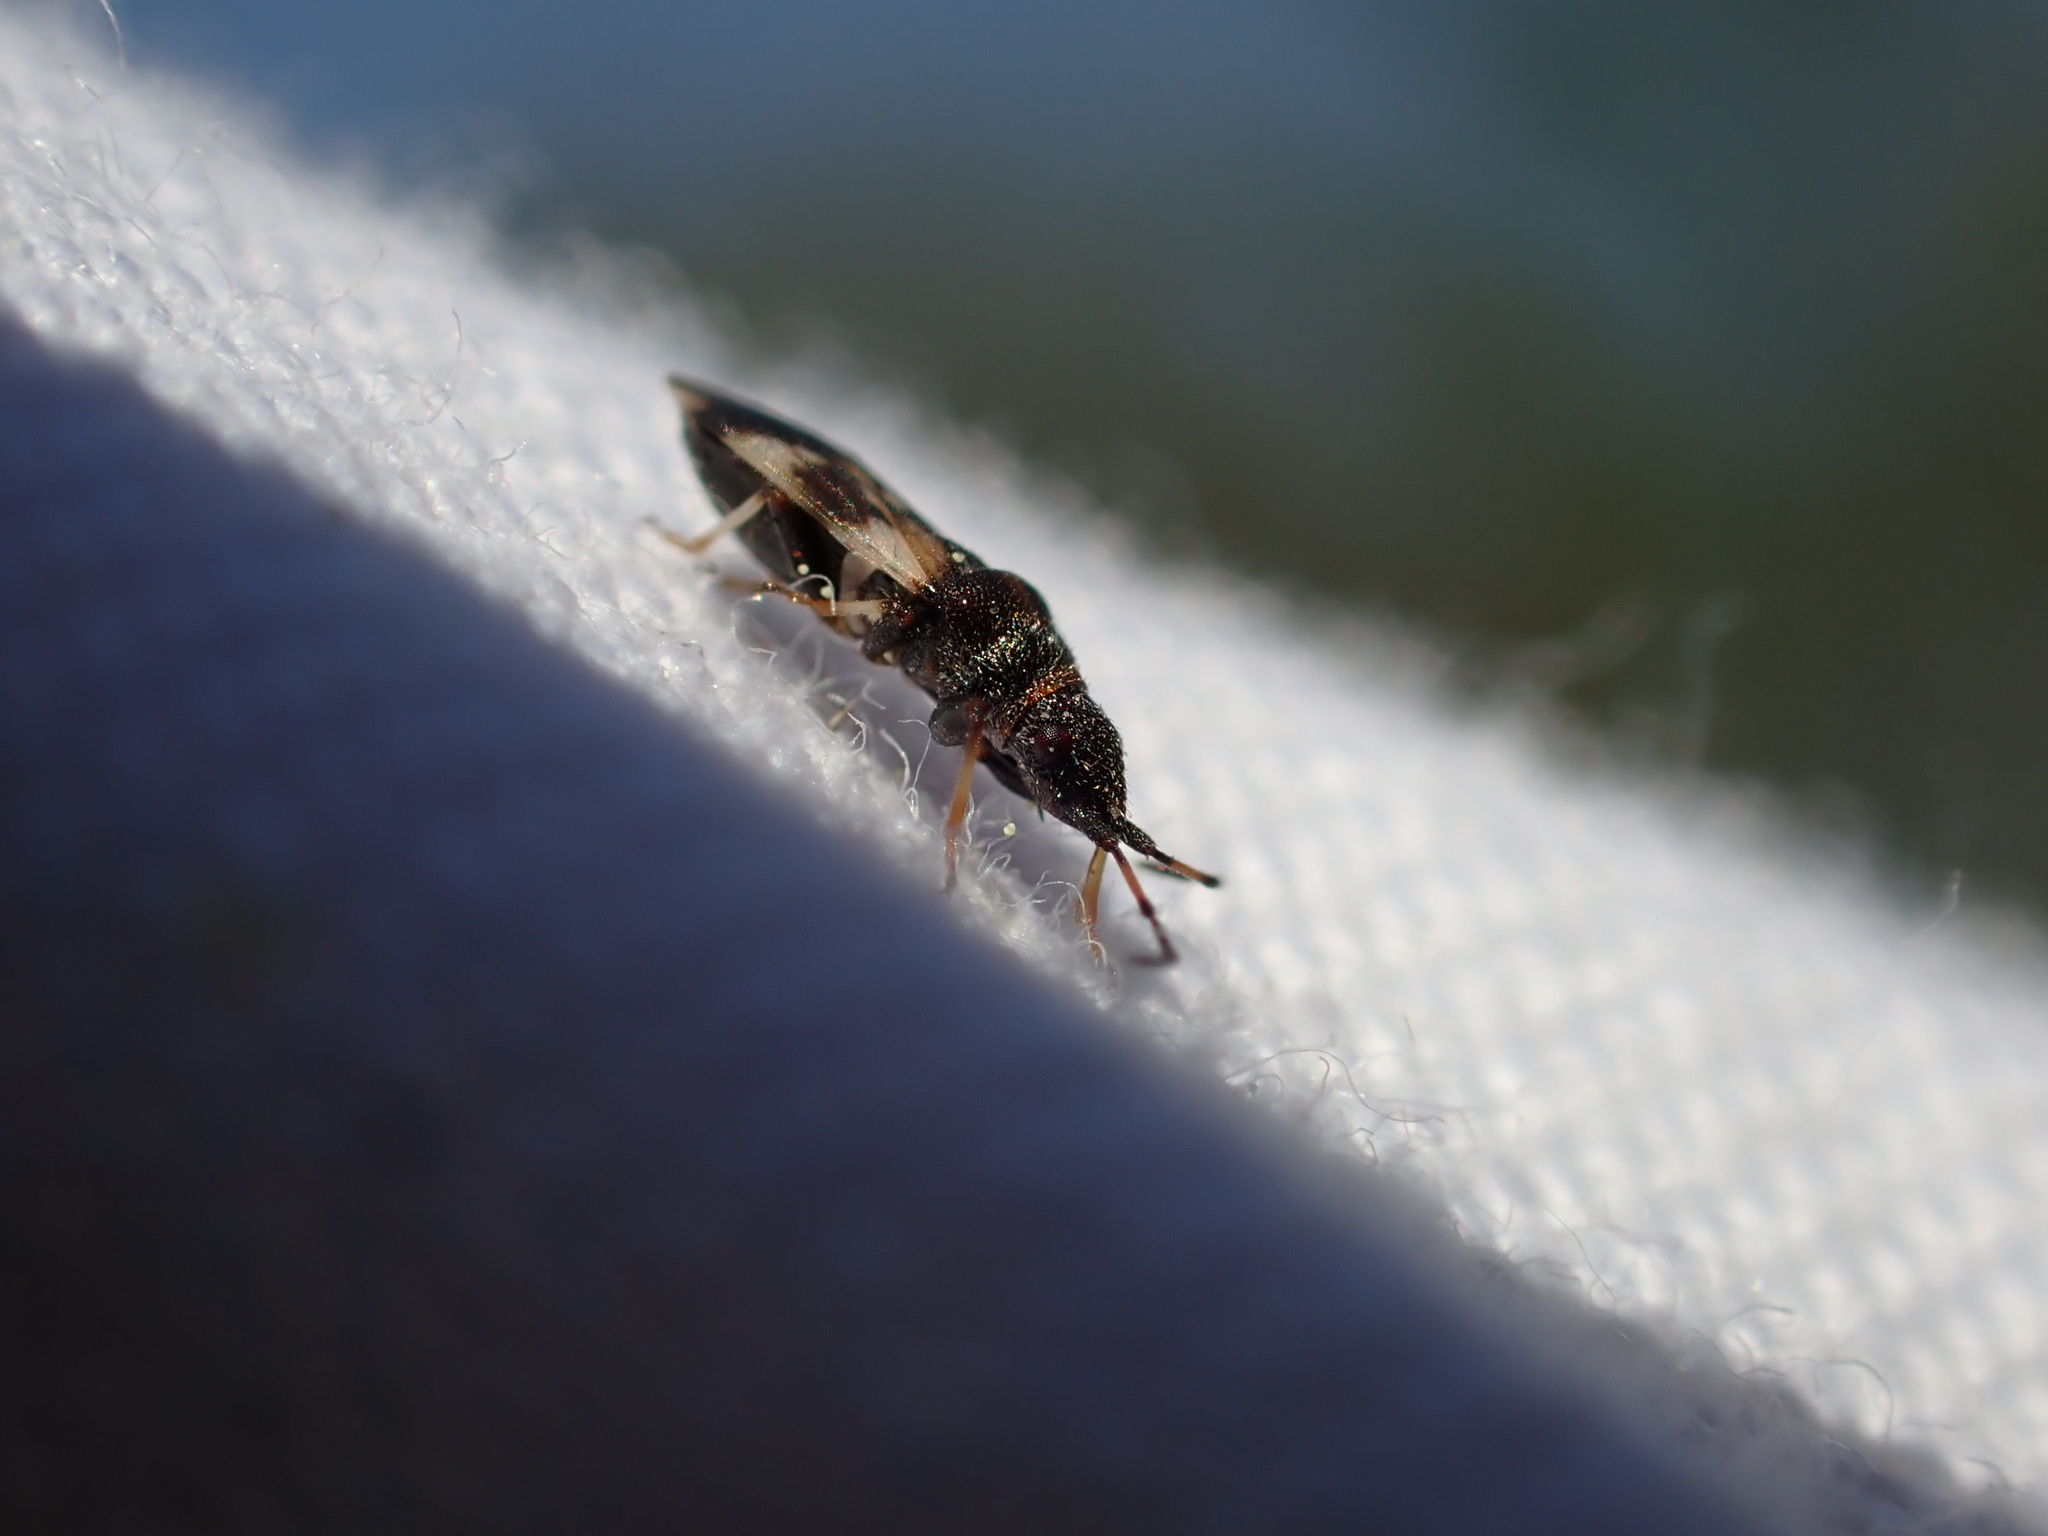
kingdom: Animalia
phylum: Arthropoda
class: Insecta
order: Hemiptera
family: Oxycarenidae
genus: Macroplax
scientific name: Macroplax fasciata
